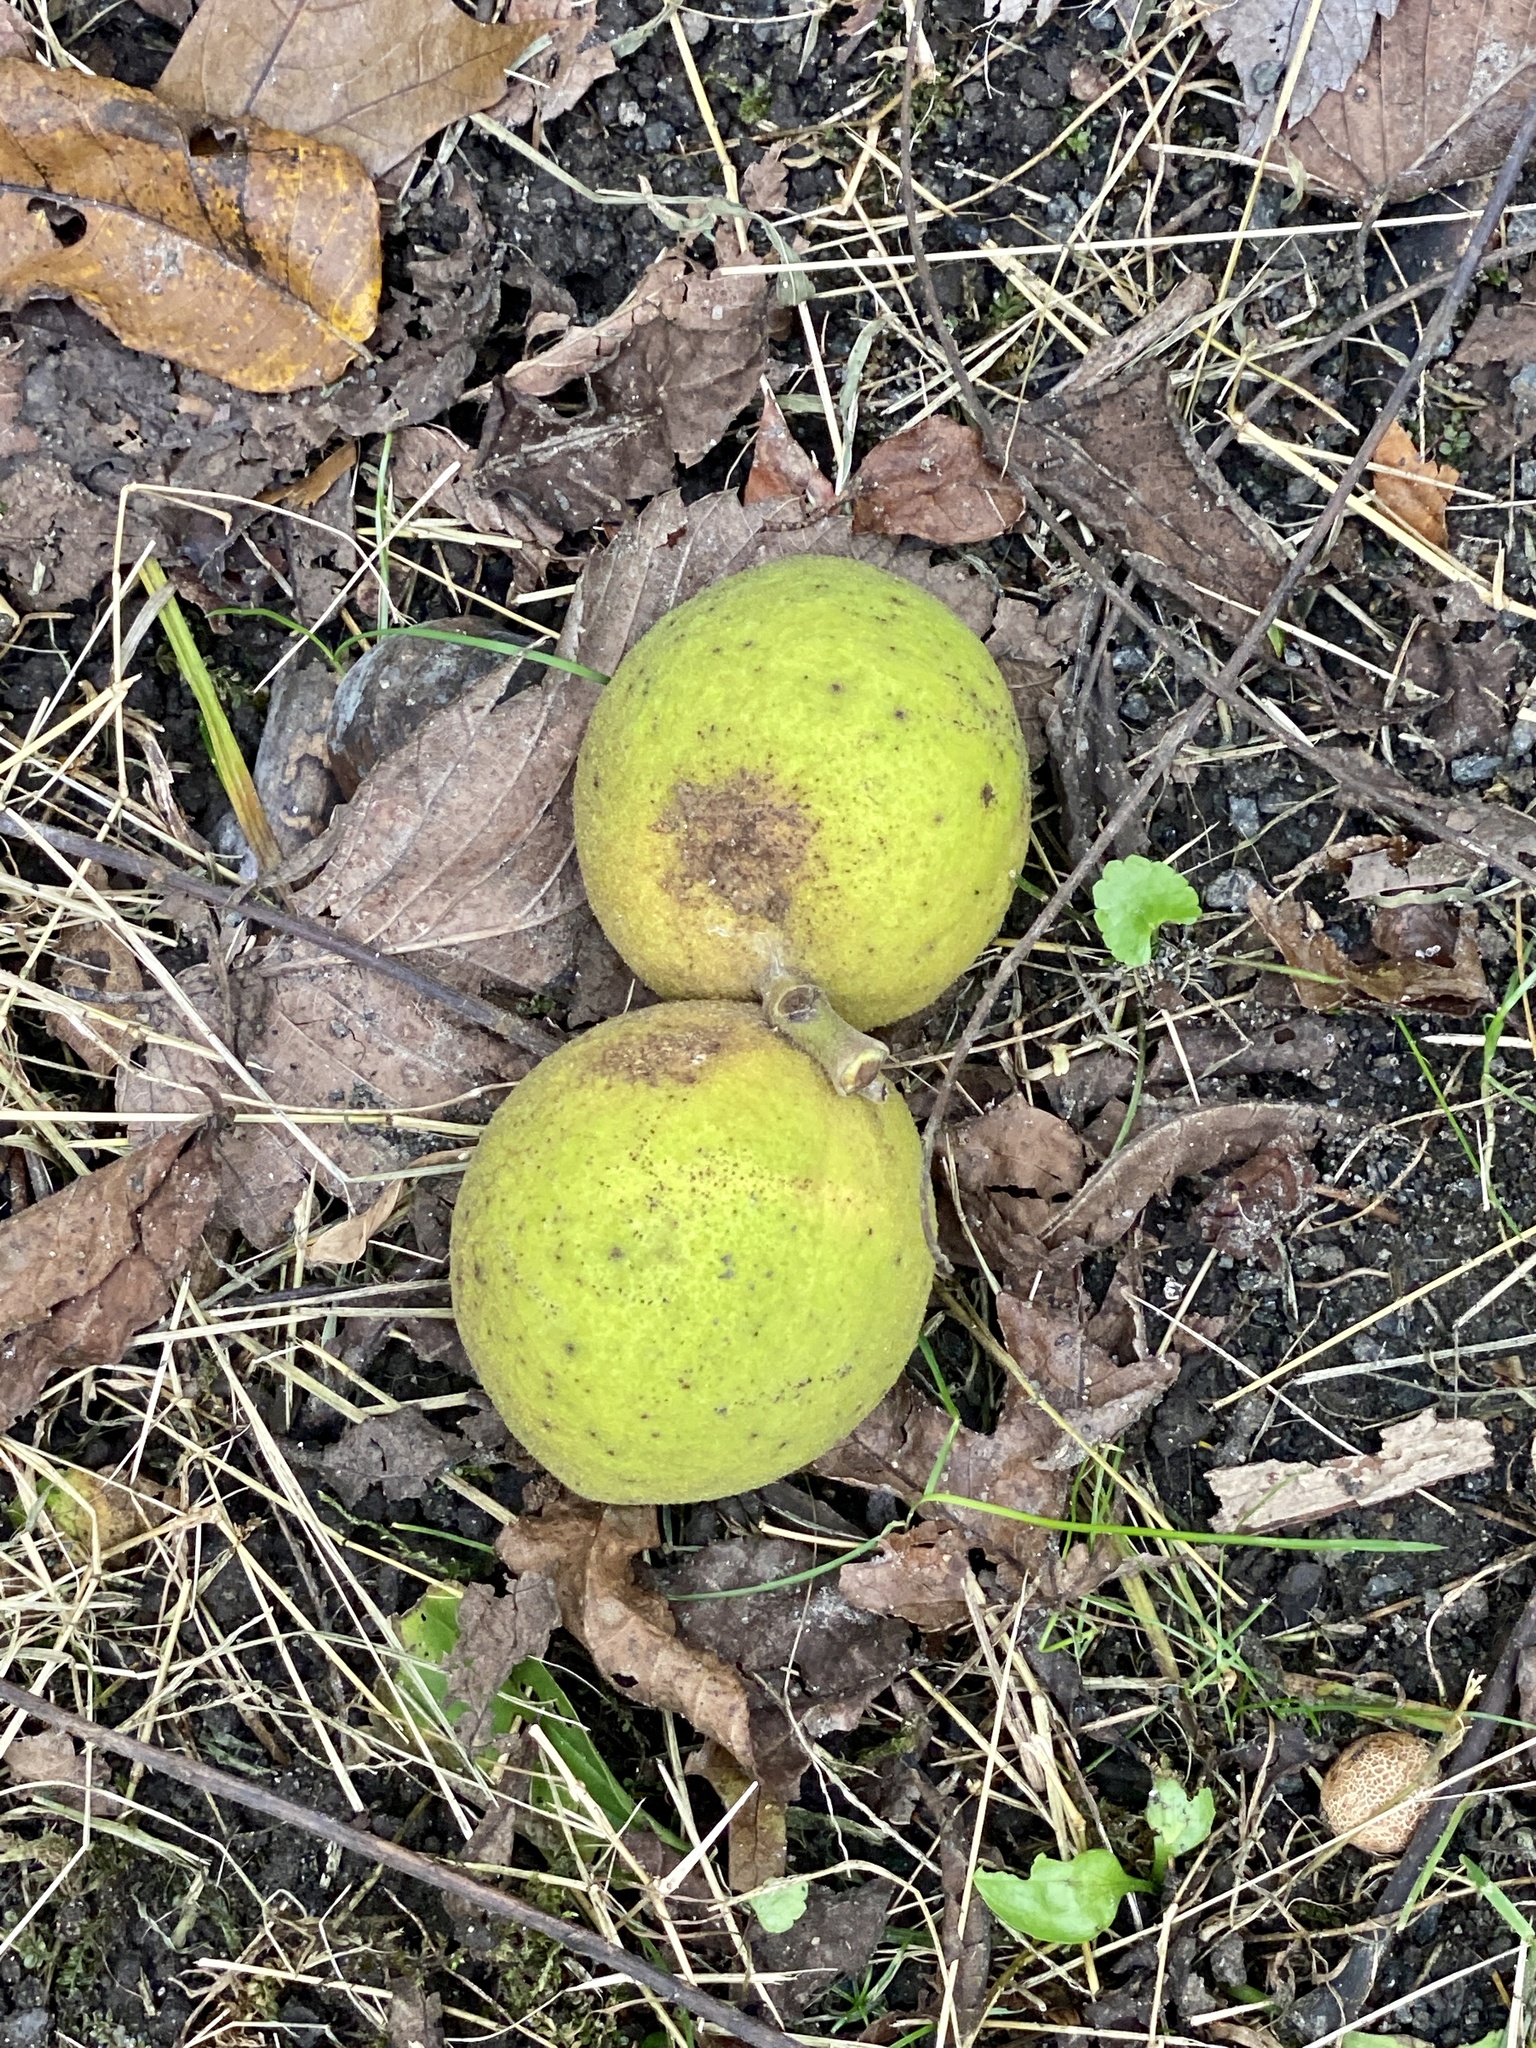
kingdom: Plantae
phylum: Tracheophyta
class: Magnoliopsida
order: Fagales
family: Juglandaceae
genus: Juglans
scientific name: Juglans nigra
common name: Black walnut
